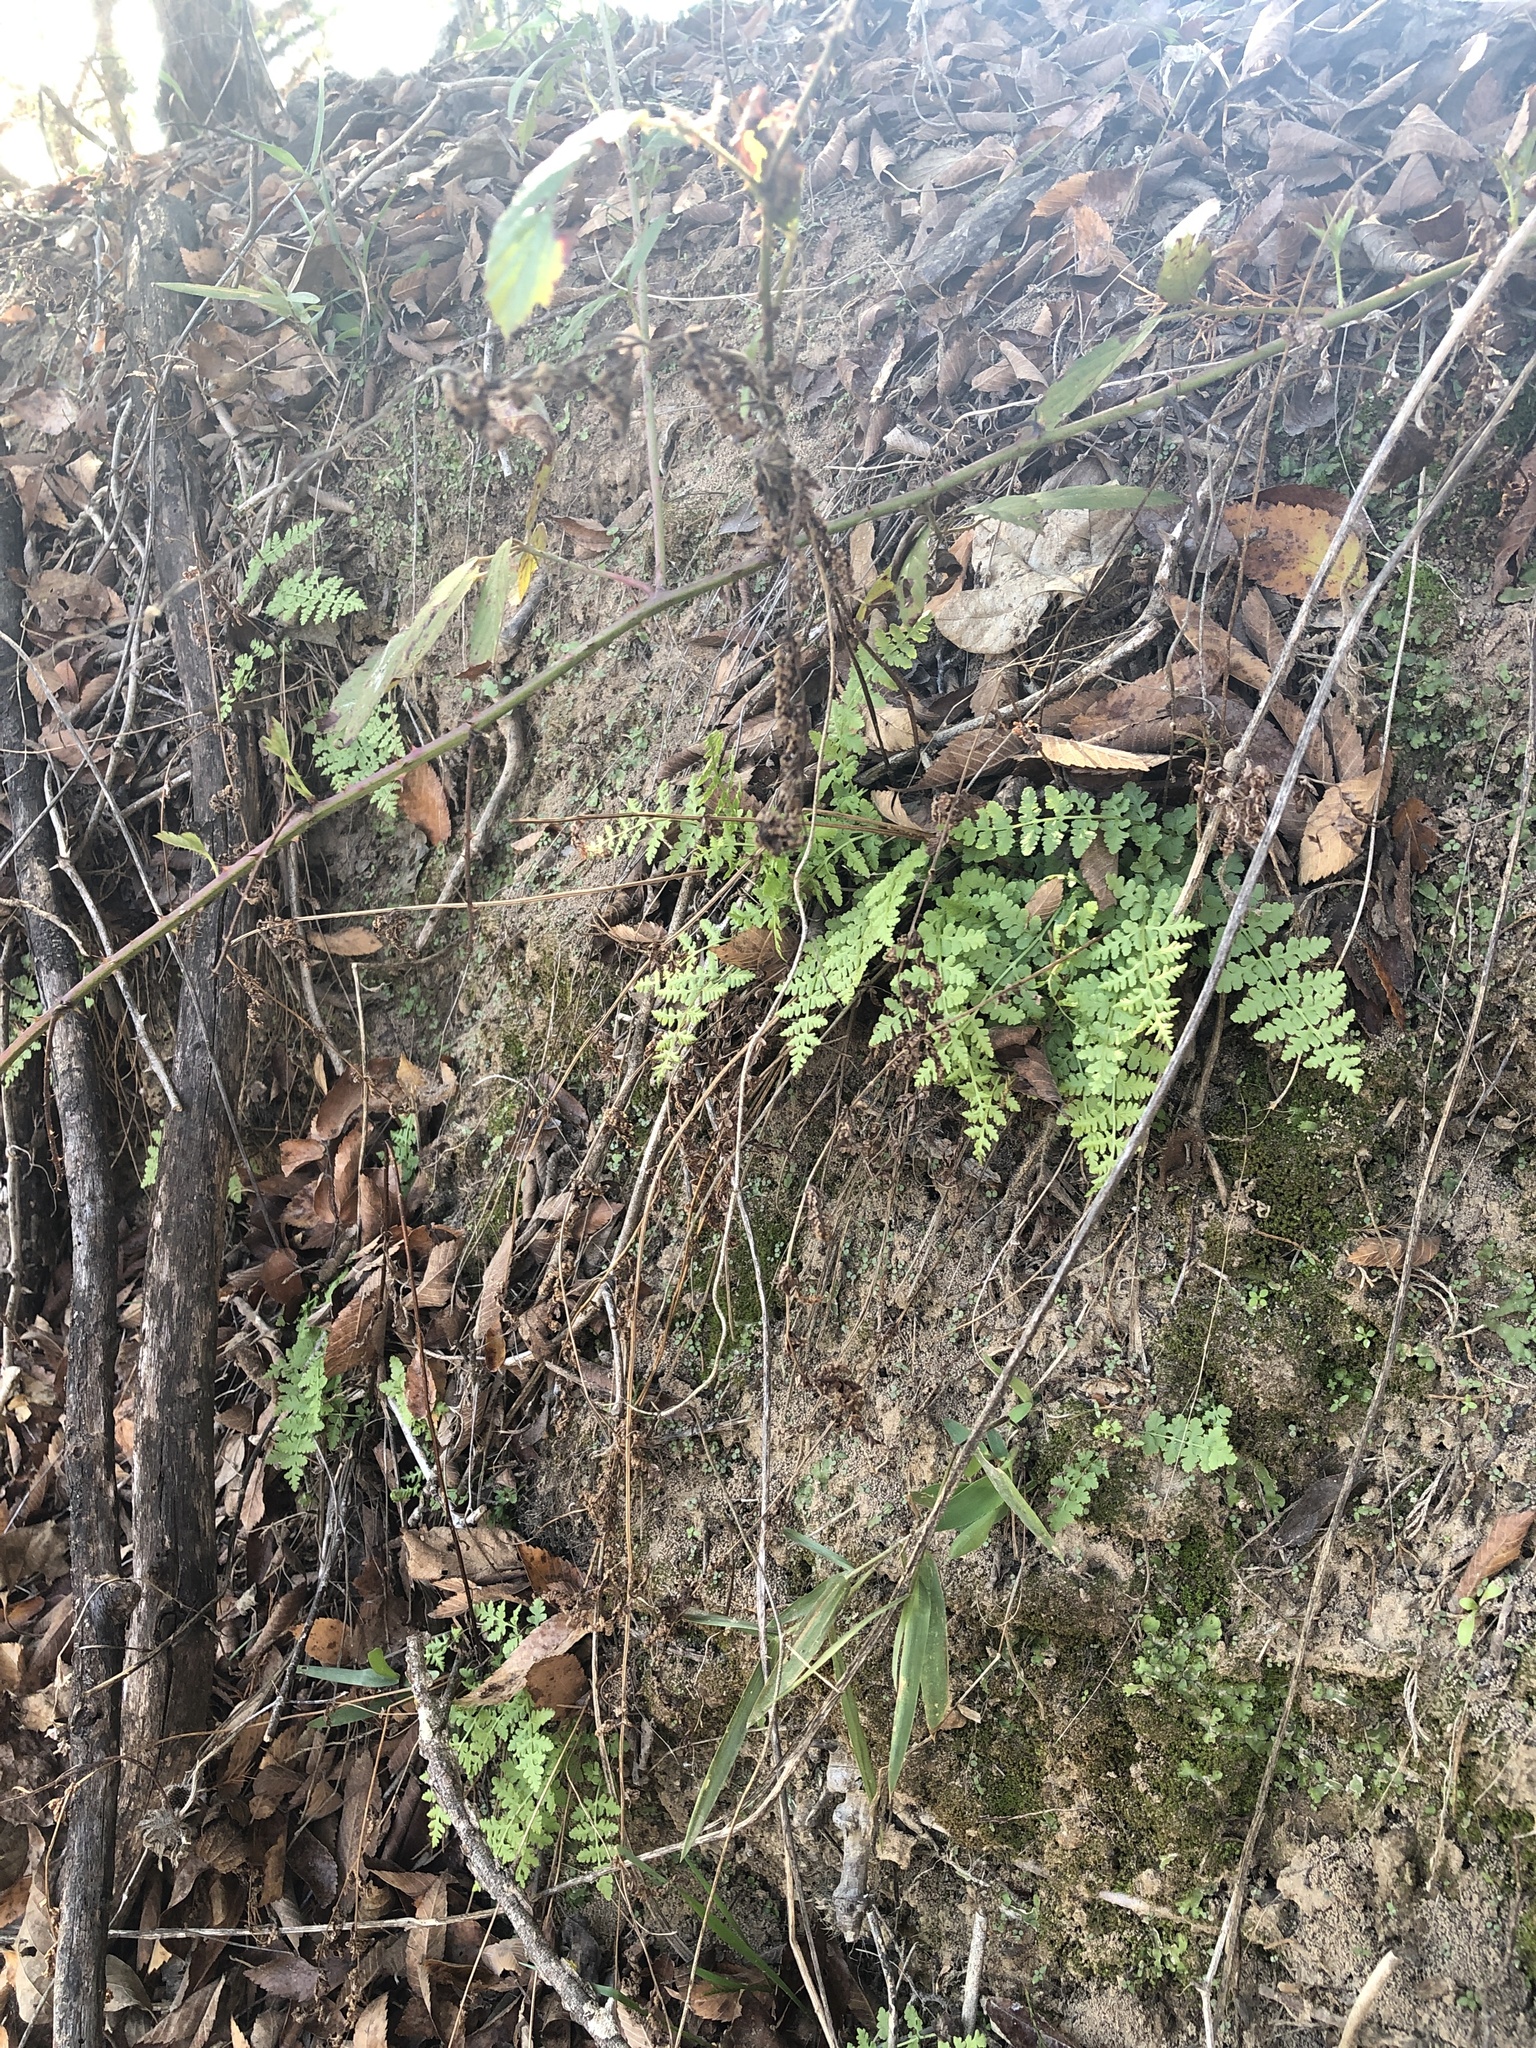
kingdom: Plantae
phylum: Tracheophyta
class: Polypodiopsida
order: Polypodiales
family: Woodsiaceae
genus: Physematium
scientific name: Physematium obtusum
